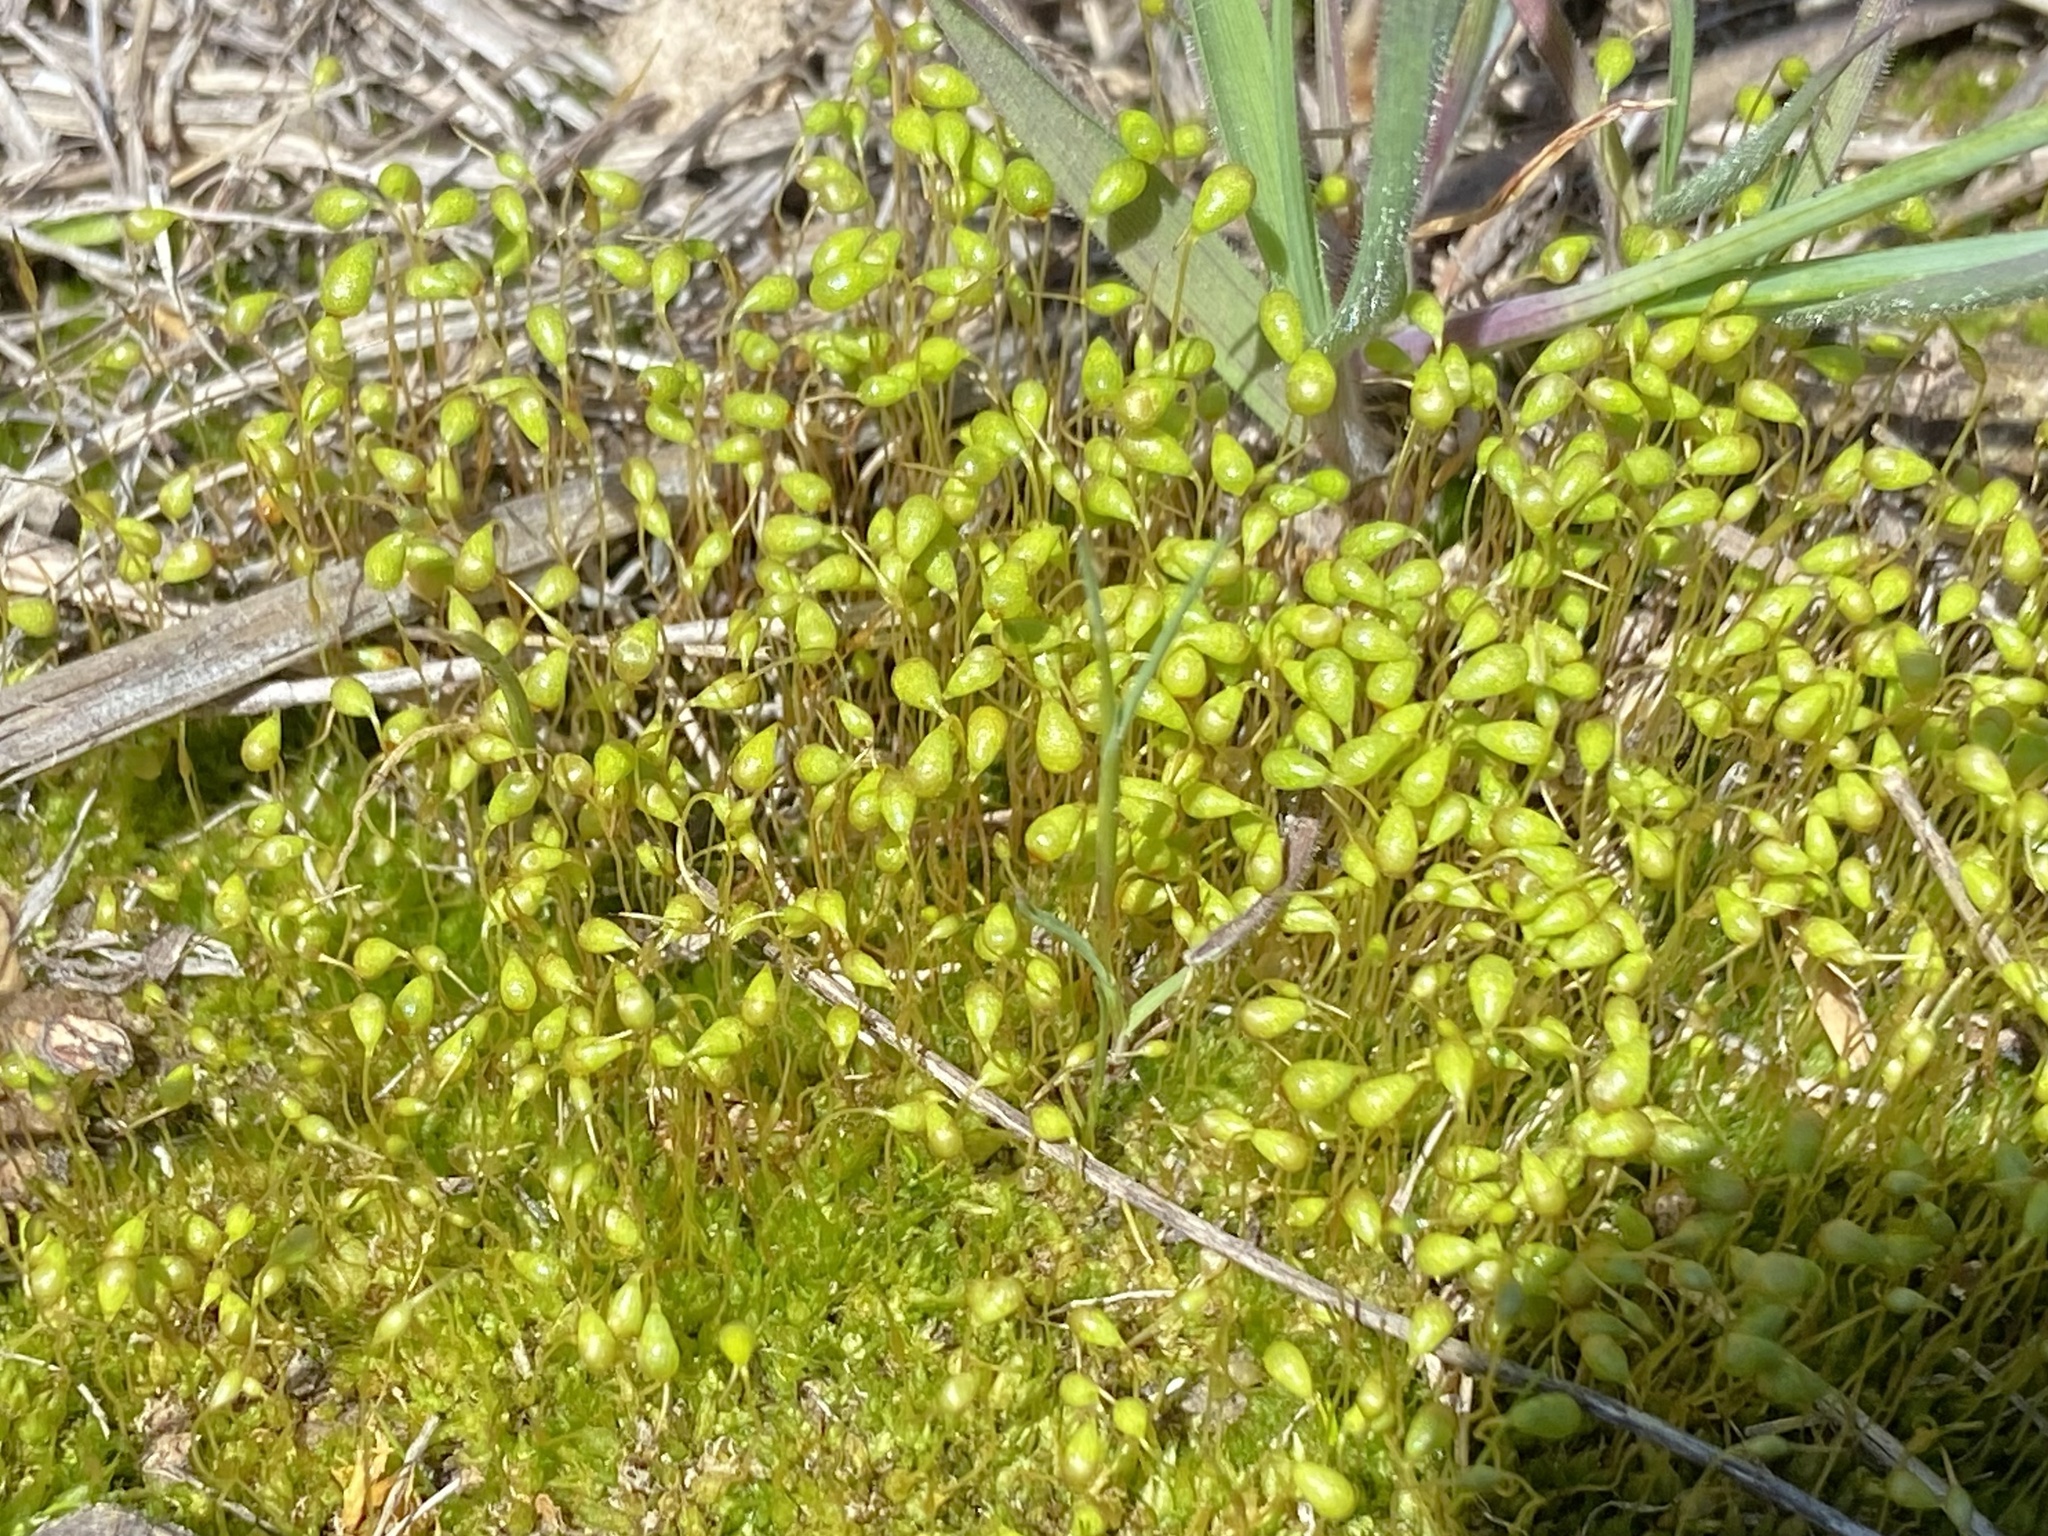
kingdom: Plantae
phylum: Bryophyta
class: Bryopsida
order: Funariales
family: Funariaceae
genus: Funaria
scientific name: Funaria hygrometrica
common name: Common cord moss
